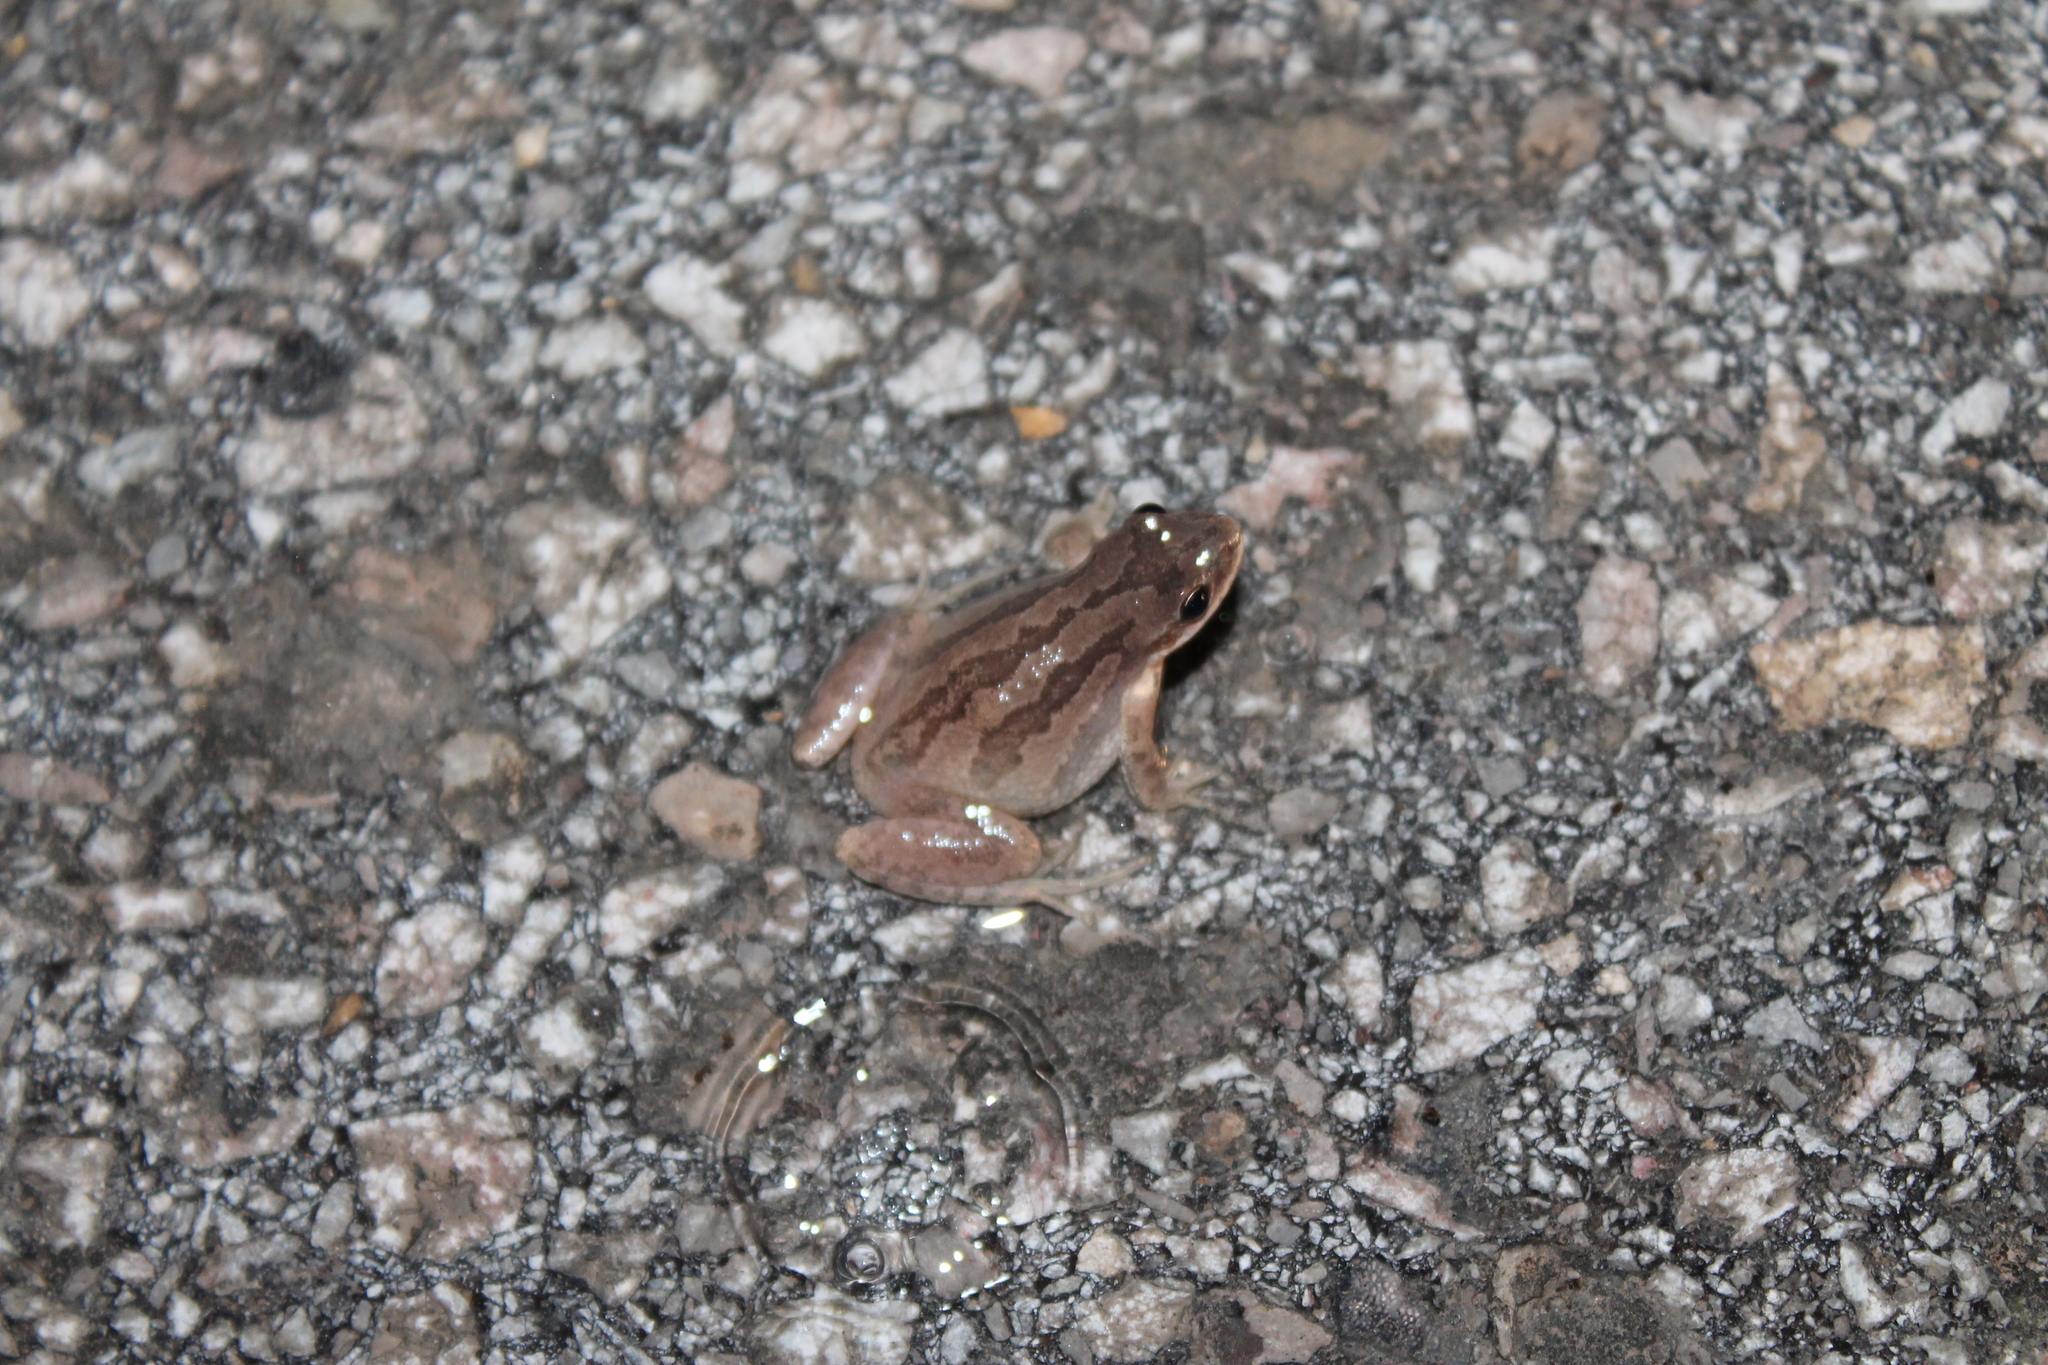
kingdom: Animalia
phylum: Chordata
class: Amphibia
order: Anura
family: Hylidae
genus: Pseudacris
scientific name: Pseudacris feriarum
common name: Upland chorus frog
